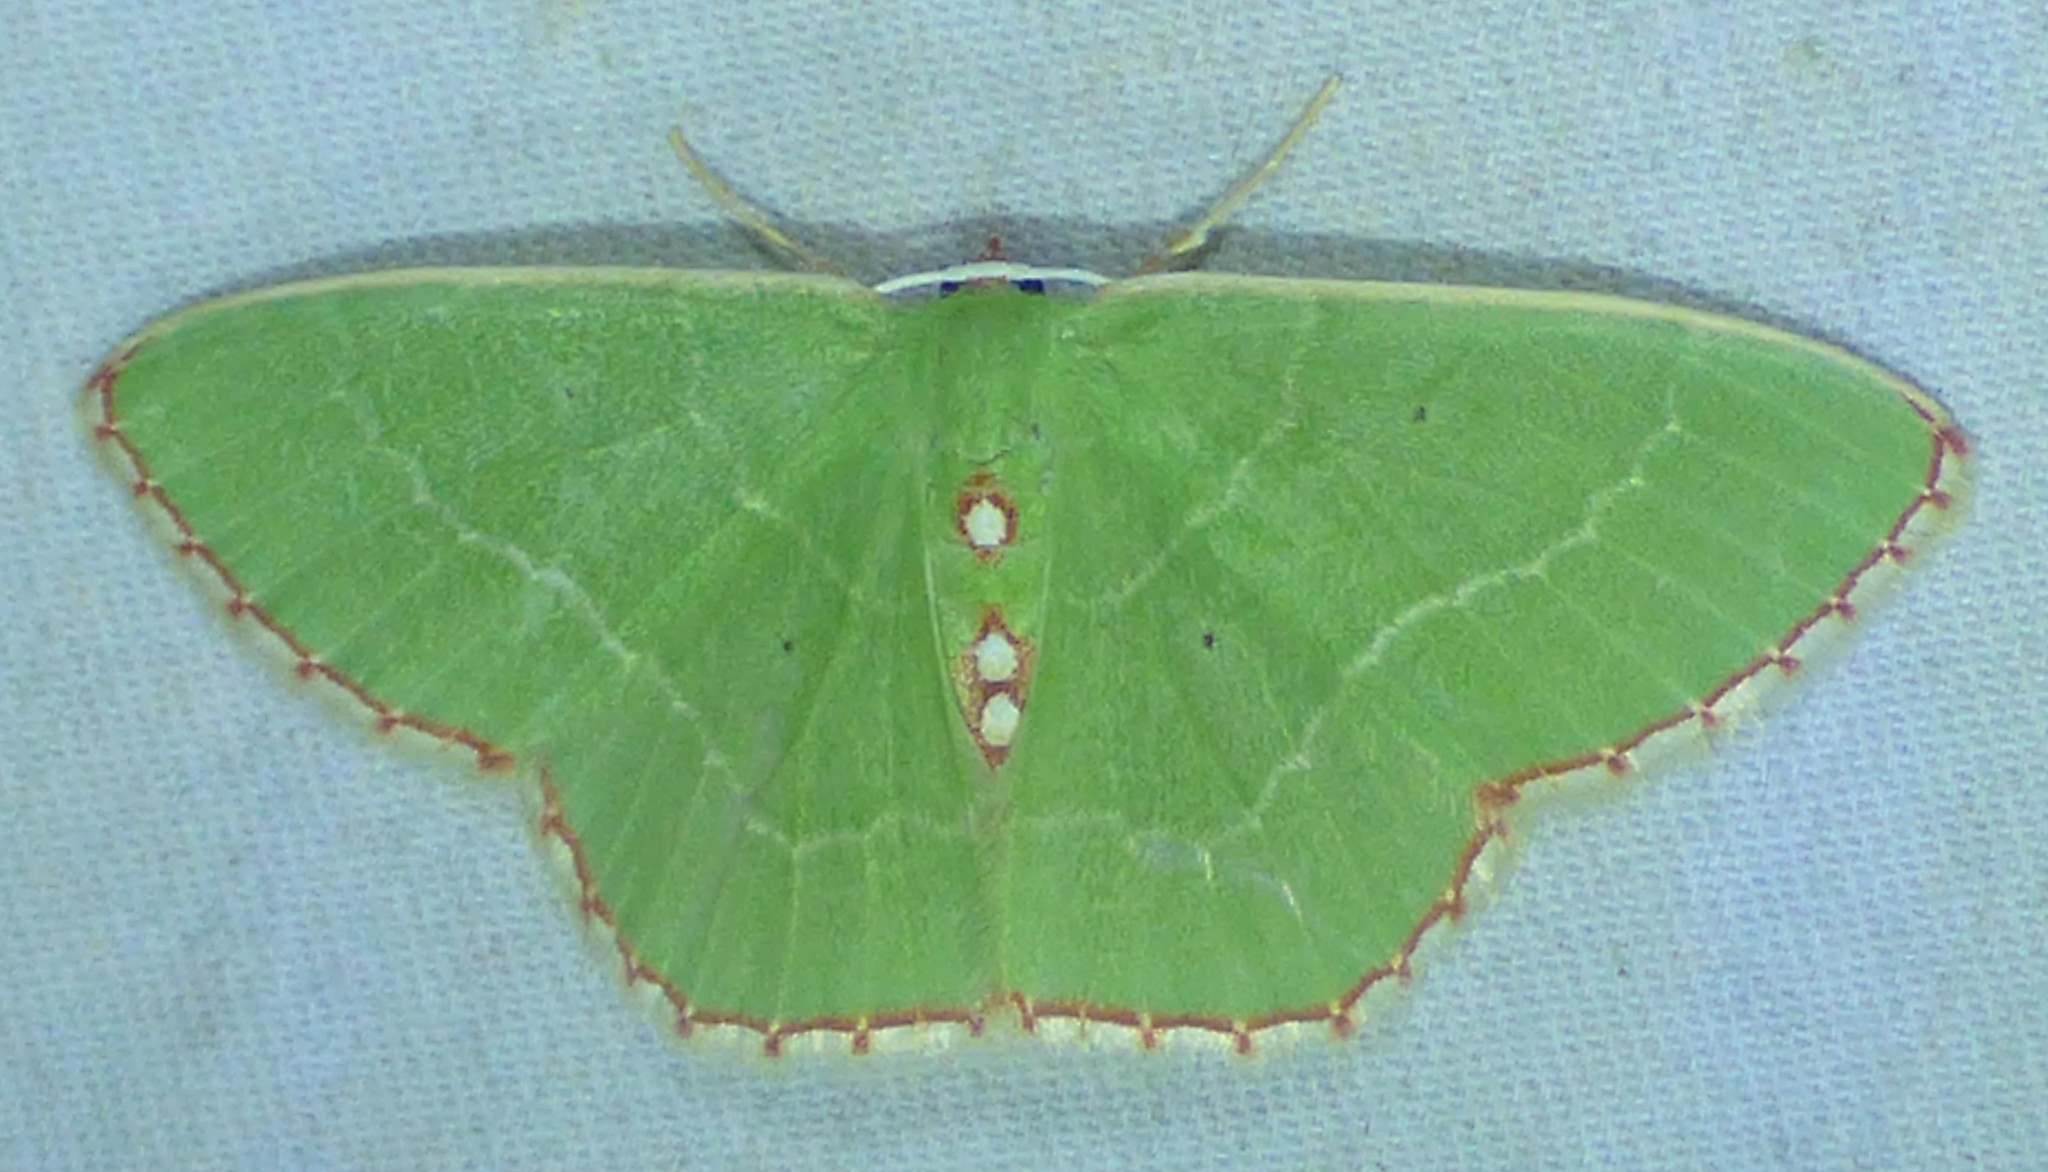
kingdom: Animalia
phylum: Arthropoda
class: Insecta
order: Lepidoptera
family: Geometridae
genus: Nemoria
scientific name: Nemoria lixaria
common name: Red-bordered emerald
